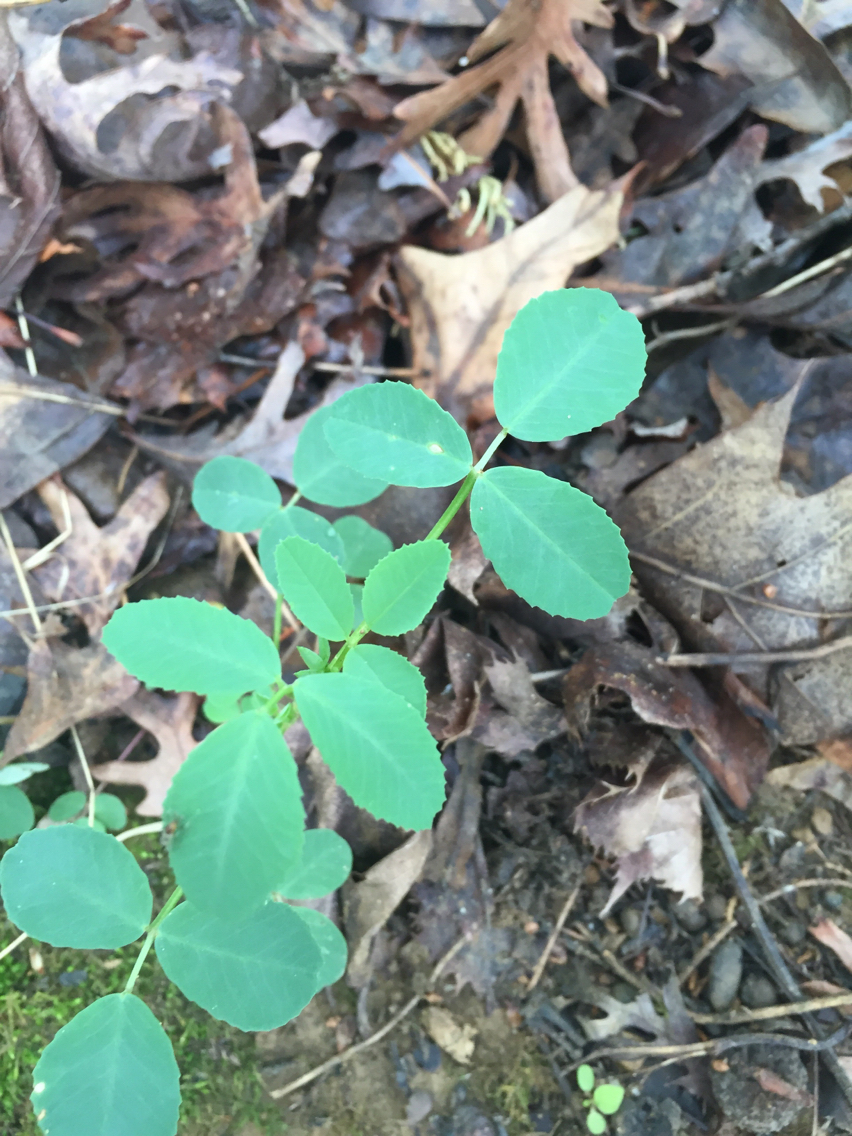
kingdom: Plantae
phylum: Tracheophyta
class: Magnoliopsida
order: Fabales
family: Fabaceae
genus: Melilotus
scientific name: Melilotus
